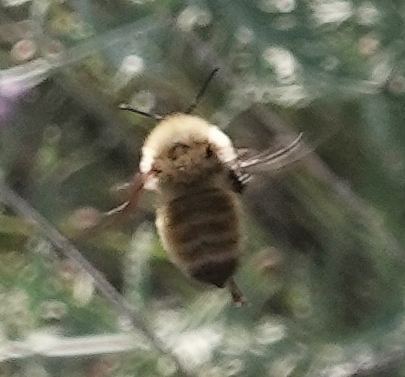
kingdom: Animalia
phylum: Arthropoda
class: Insecta
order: Hymenoptera
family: Apidae
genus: Bombus
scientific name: Bombus fervidus
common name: Yellow bumble bee
